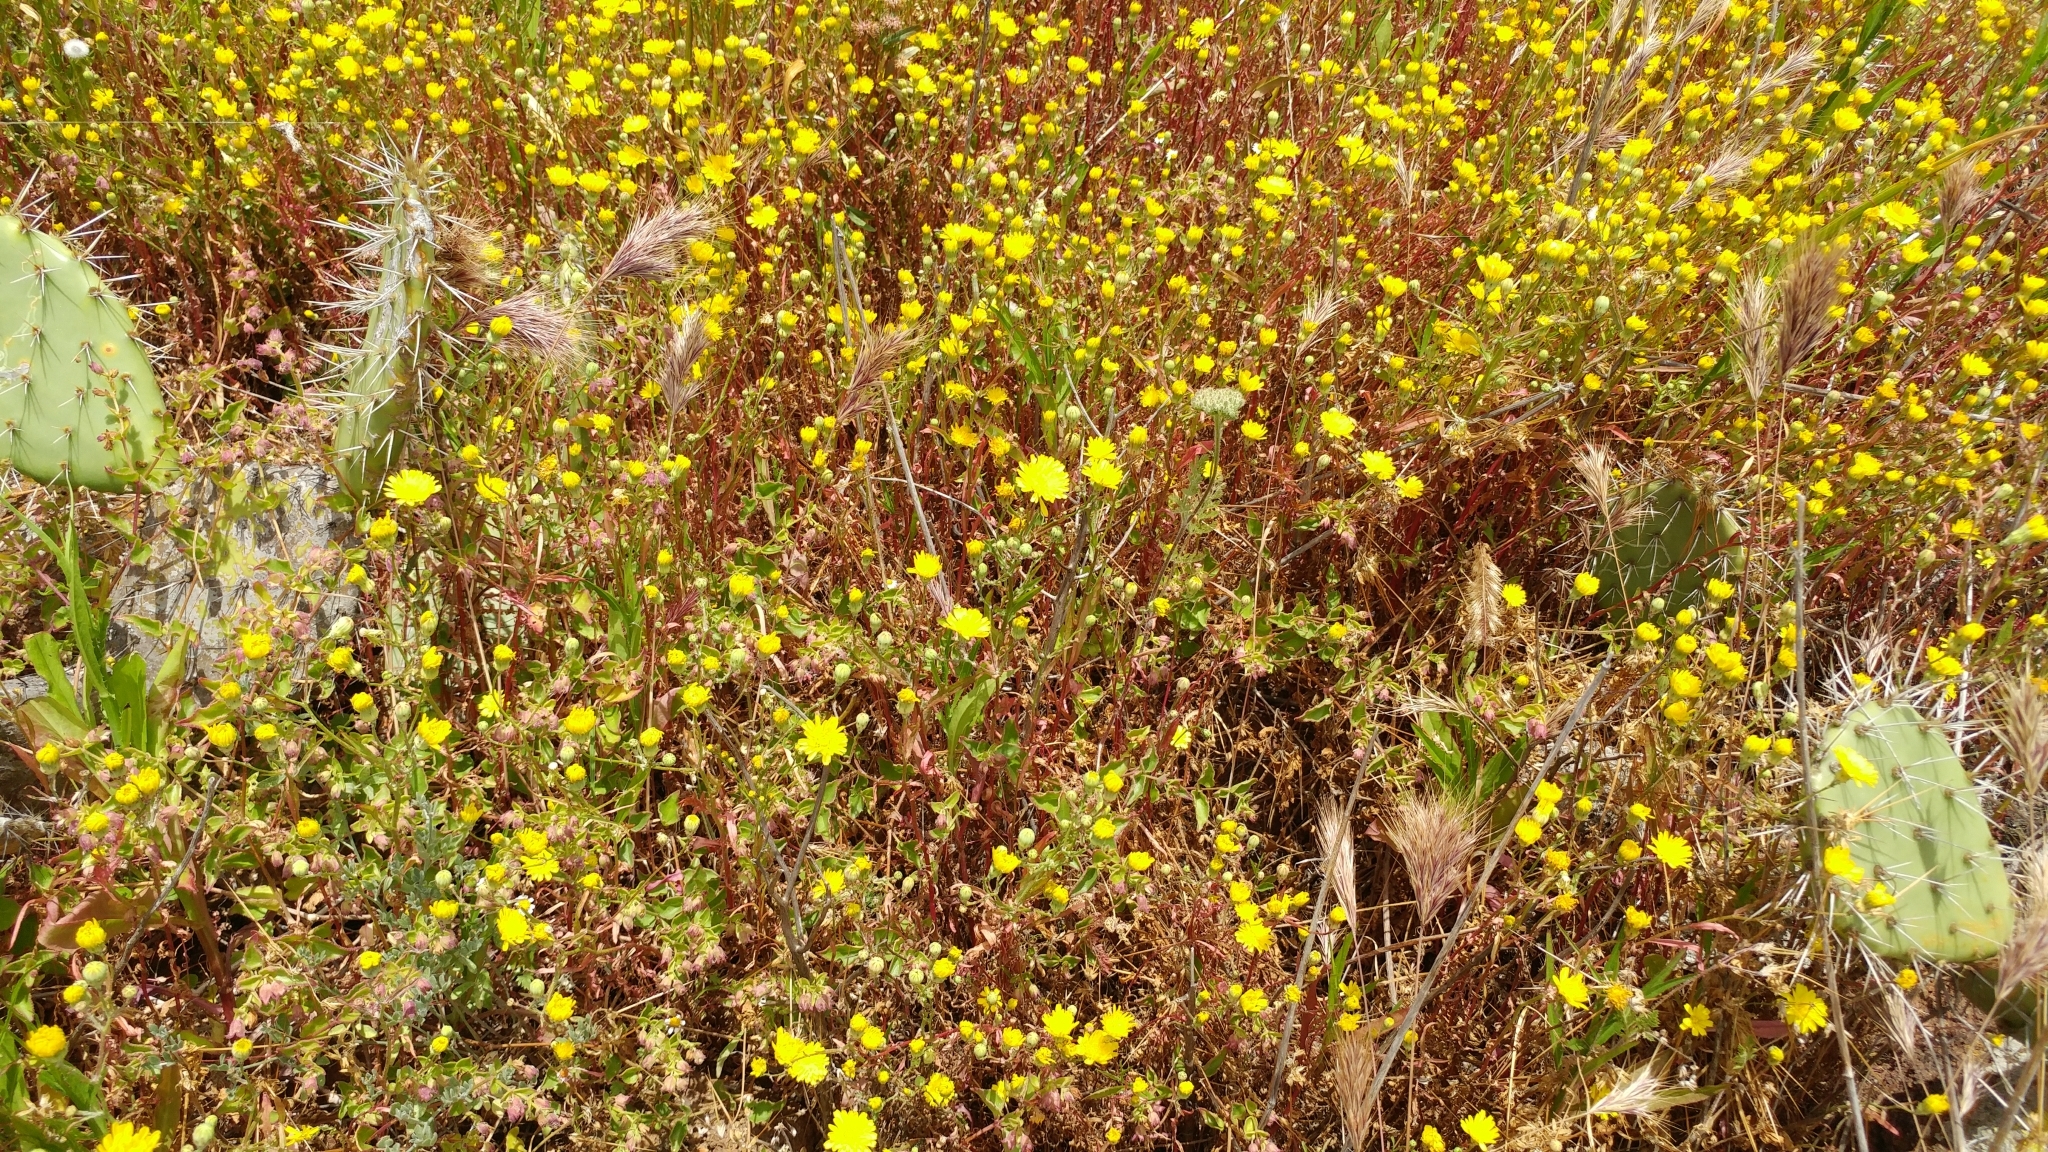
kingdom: Plantae
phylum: Tracheophyta
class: Magnoliopsida
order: Asterales
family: Asteraceae
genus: Malacothrix
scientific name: Malacothrix foliosa
